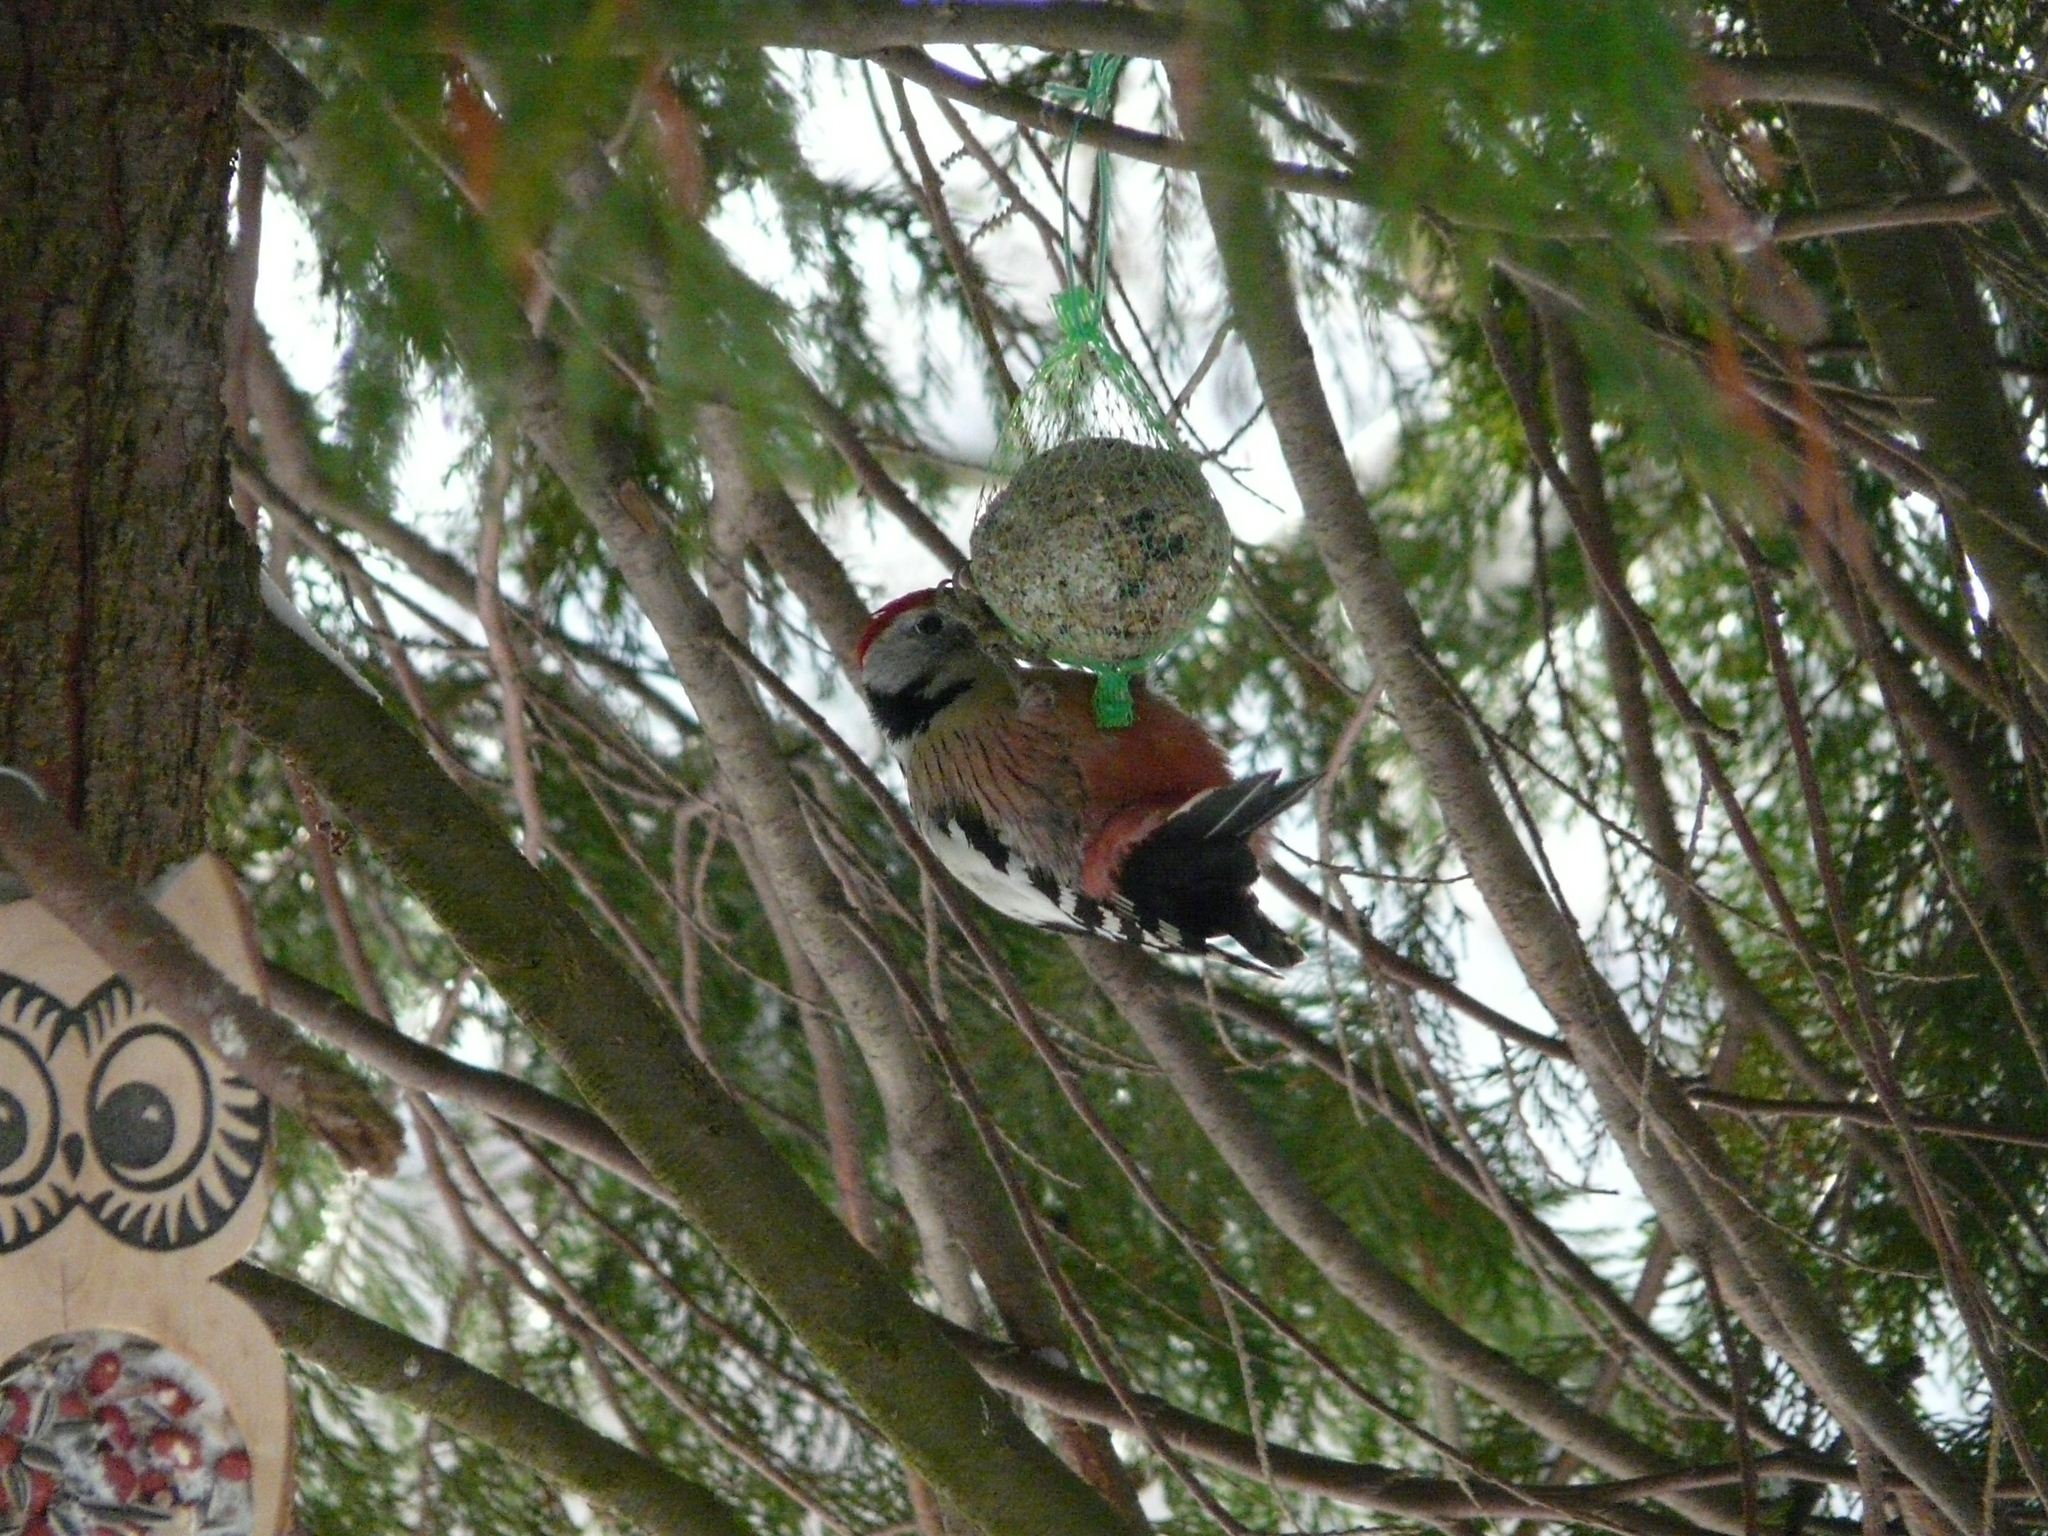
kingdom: Animalia
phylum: Chordata
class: Aves
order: Piciformes
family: Picidae
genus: Dendrocoptes
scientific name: Dendrocoptes medius
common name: Middle spotted woodpecker
